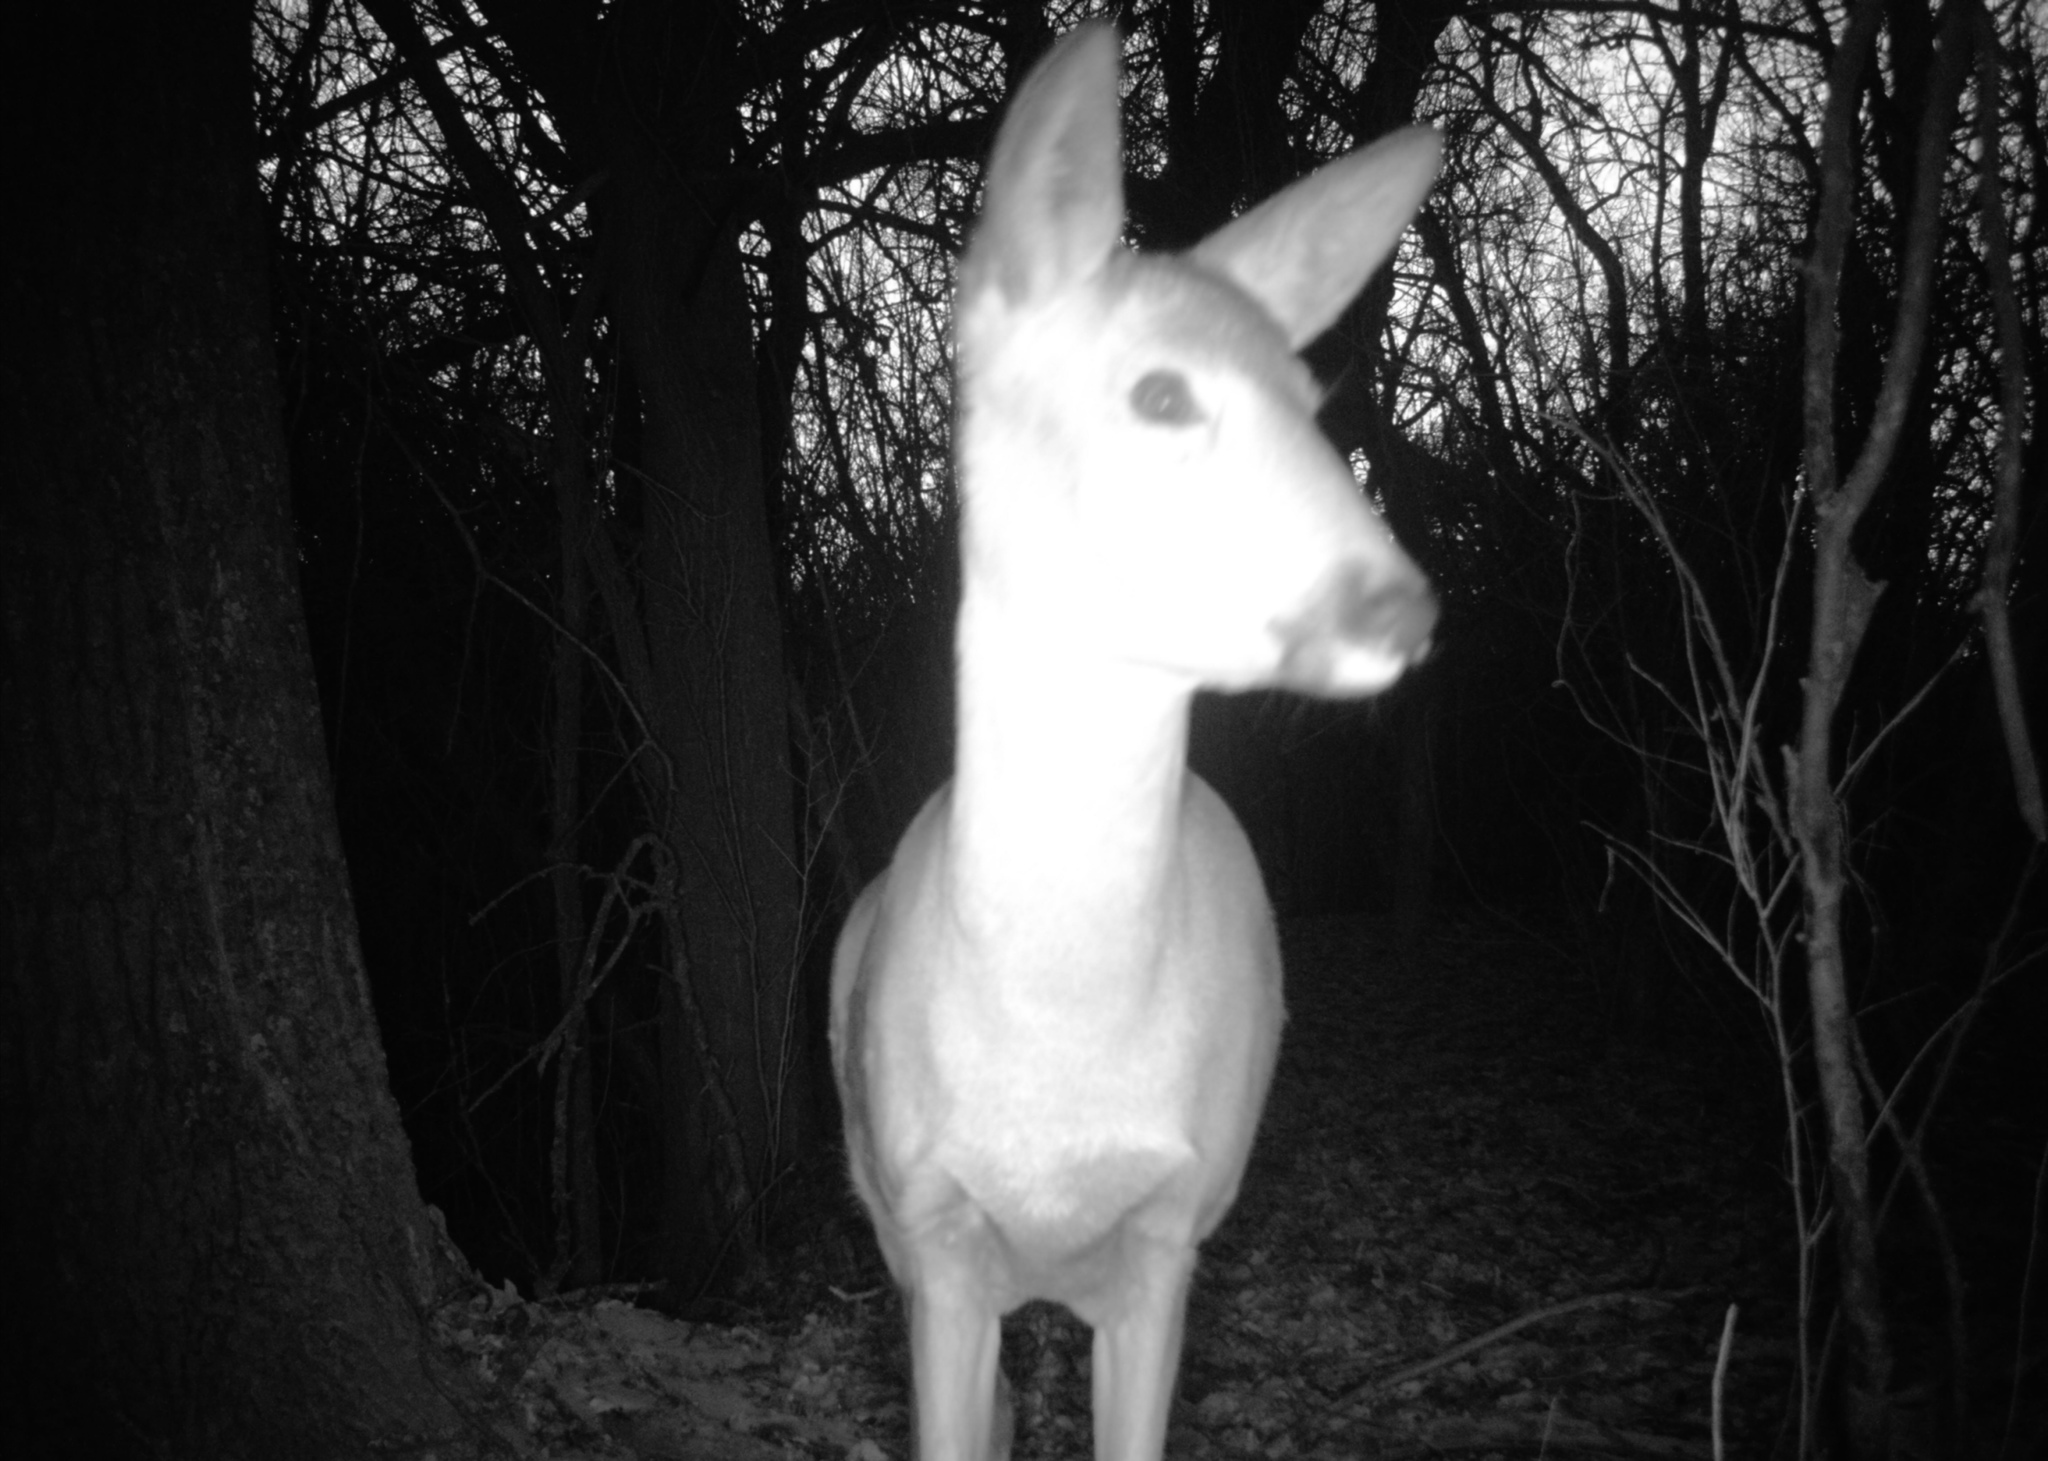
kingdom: Animalia
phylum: Chordata
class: Mammalia
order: Artiodactyla
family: Cervidae
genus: Capreolus
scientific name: Capreolus pygargus
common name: Siberian roe
